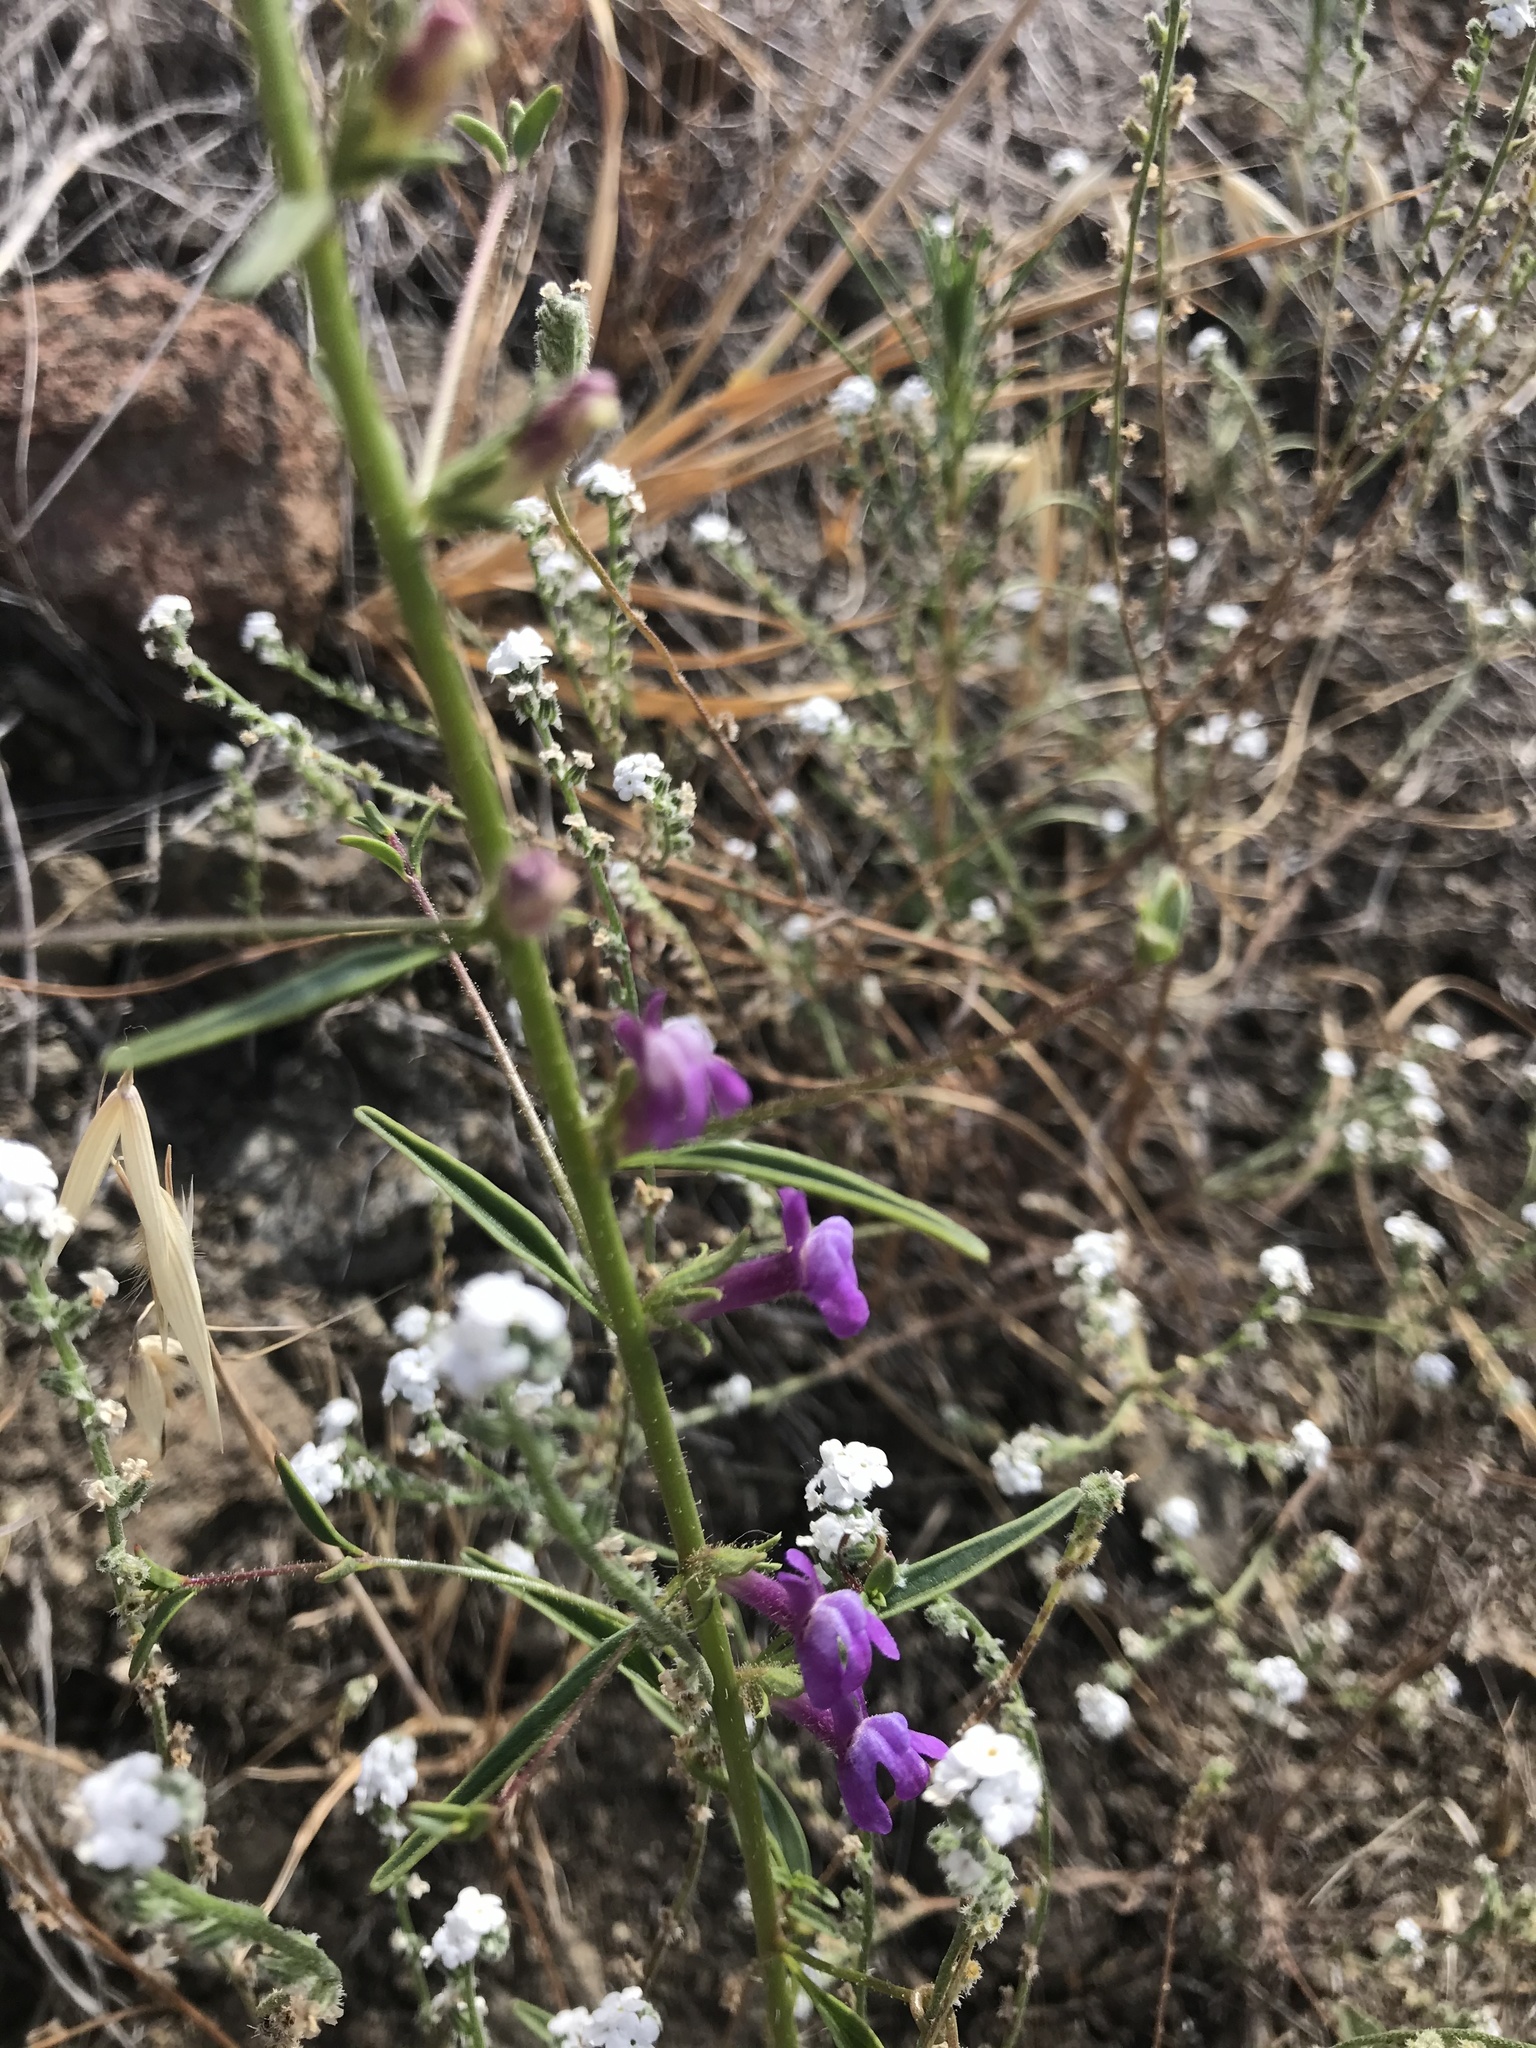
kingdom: Plantae
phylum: Tracheophyta
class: Magnoliopsida
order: Lamiales
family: Plantaginaceae
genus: Sairocarpus
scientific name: Sairocarpus vexillocalyculatus
